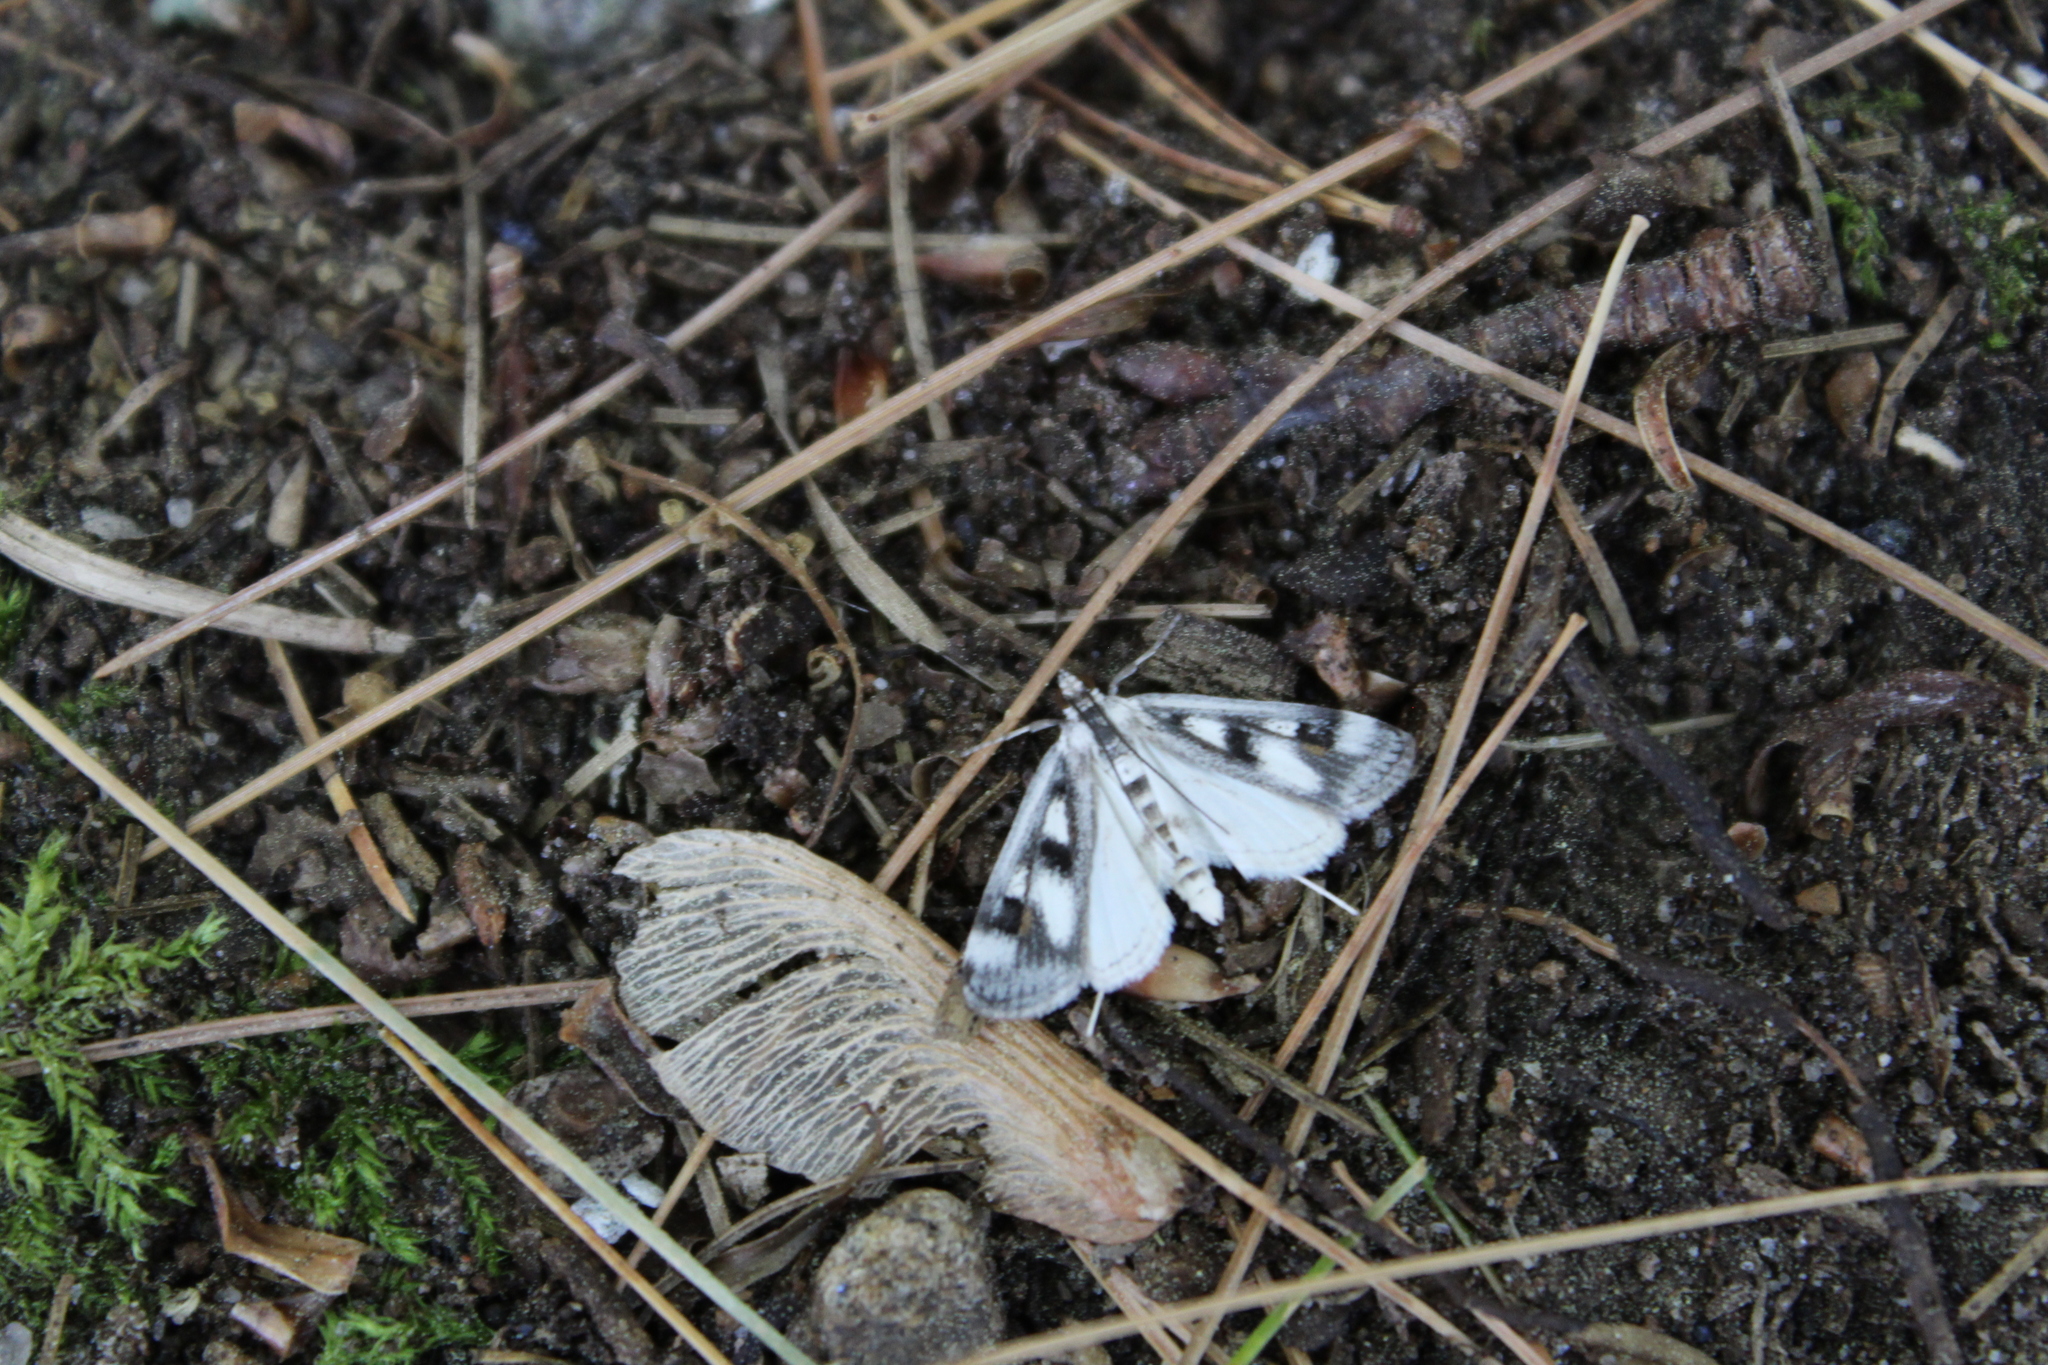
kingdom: Animalia
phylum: Arthropoda
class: Insecta
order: Lepidoptera
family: Crambidae
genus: Parapoynx
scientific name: Parapoynx maculalis
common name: Polymorphic pondweed moth
